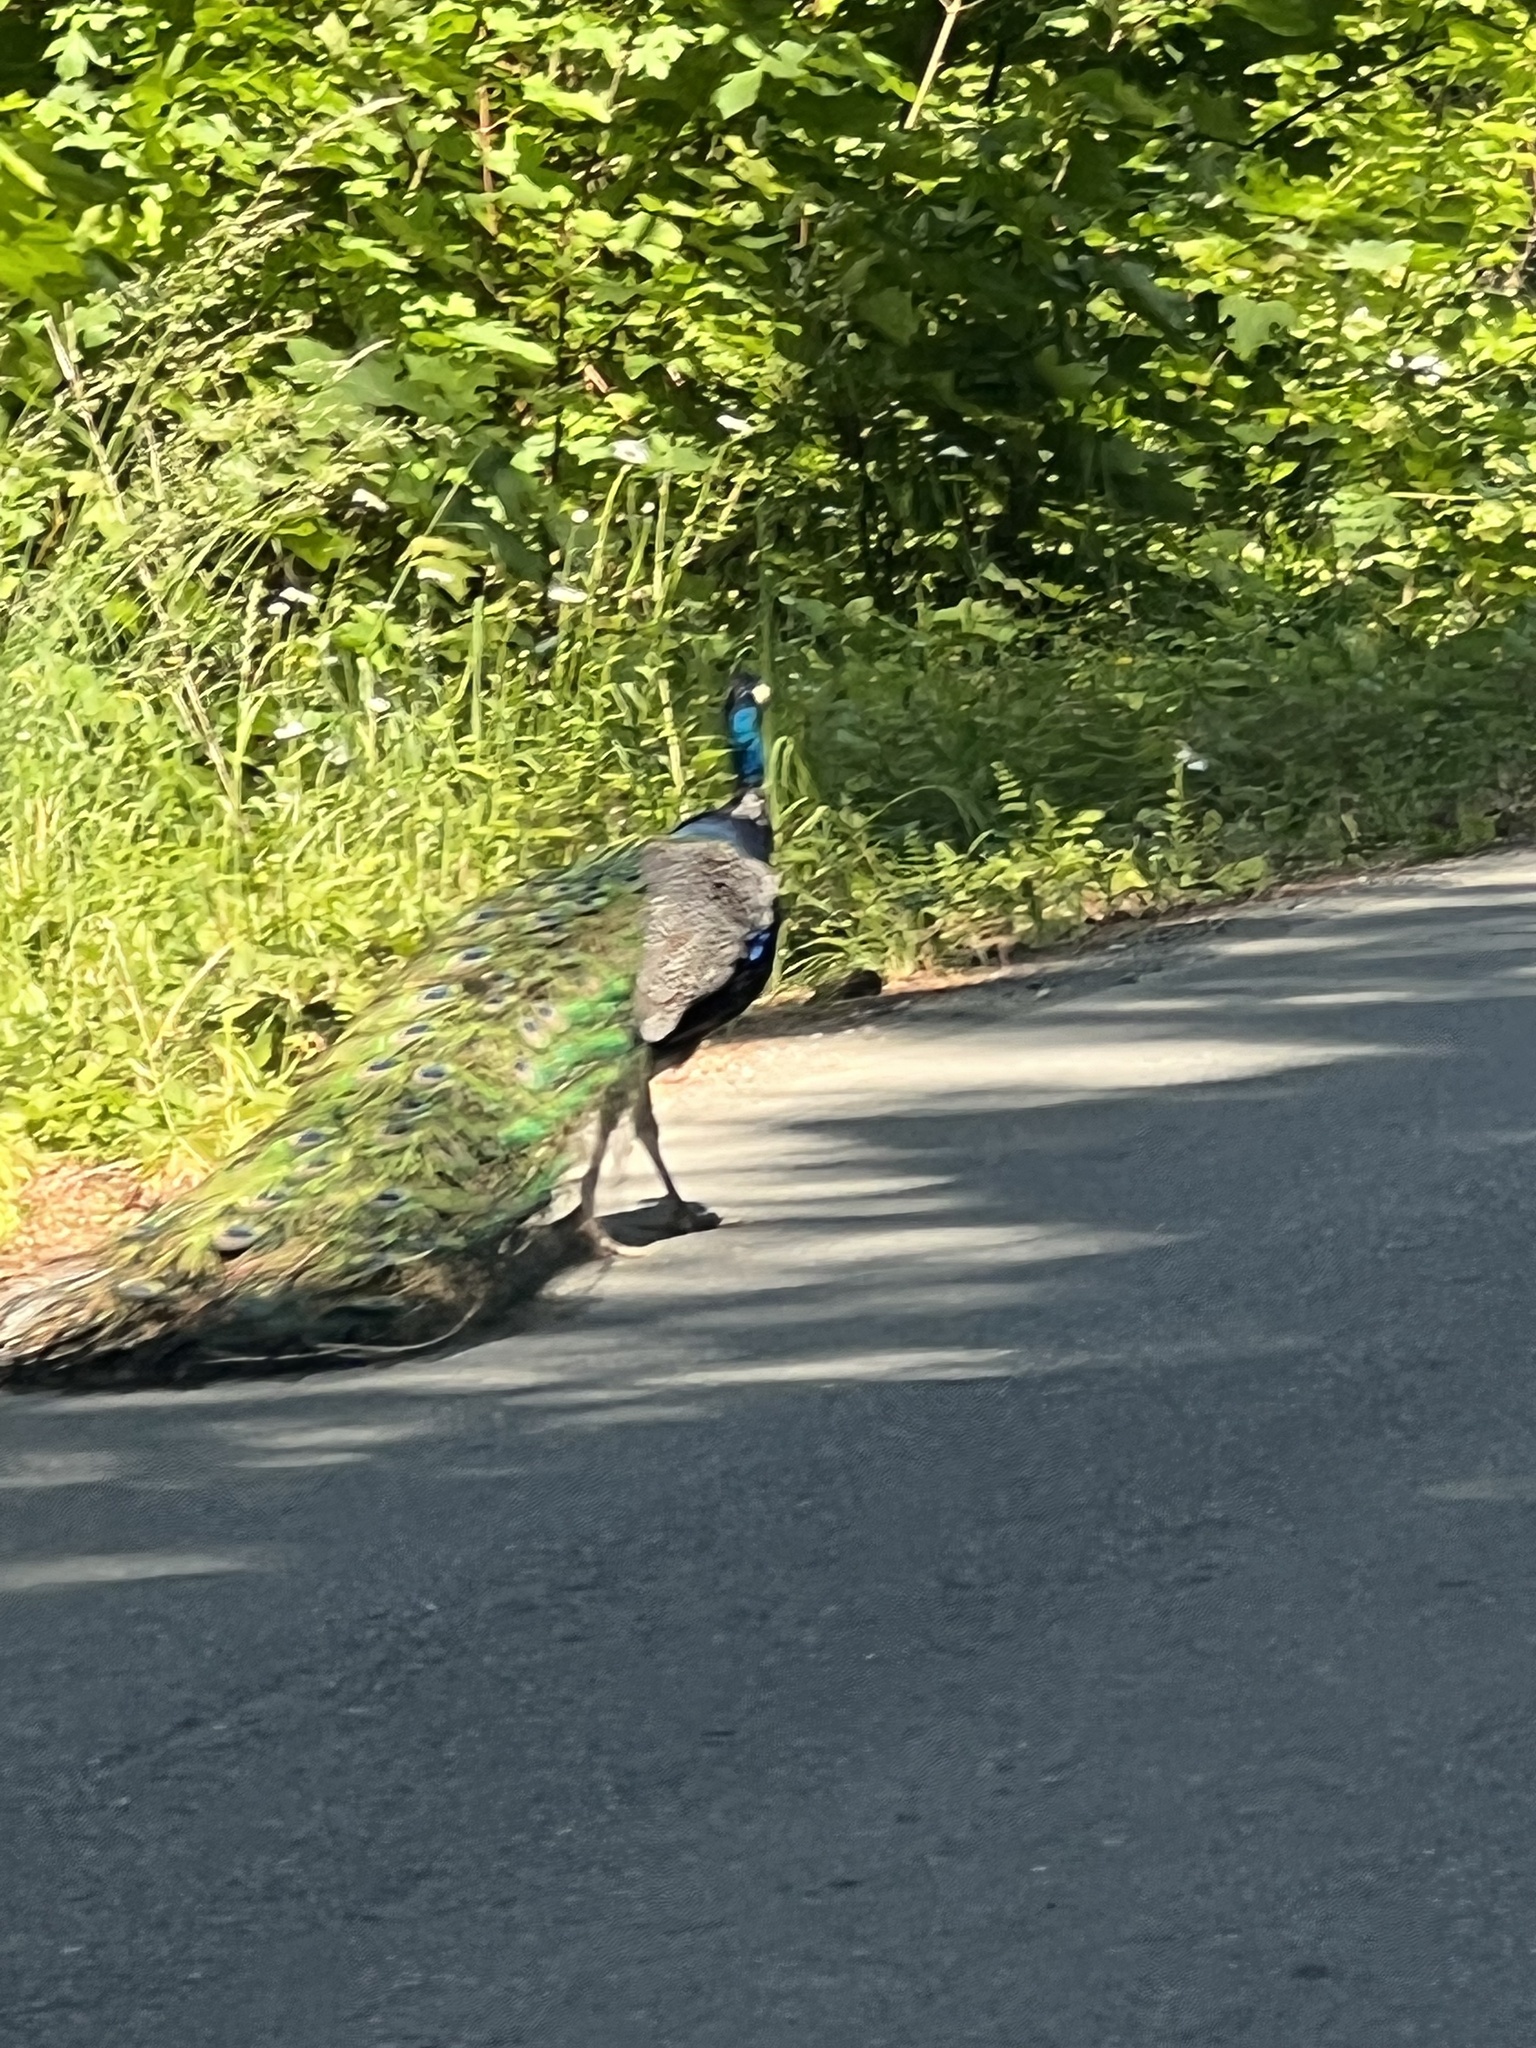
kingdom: Animalia
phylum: Chordata
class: Aves
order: Galliformes
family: Phasianidae
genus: Pavo
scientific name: Pavo cristatus
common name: Indian peafowl
